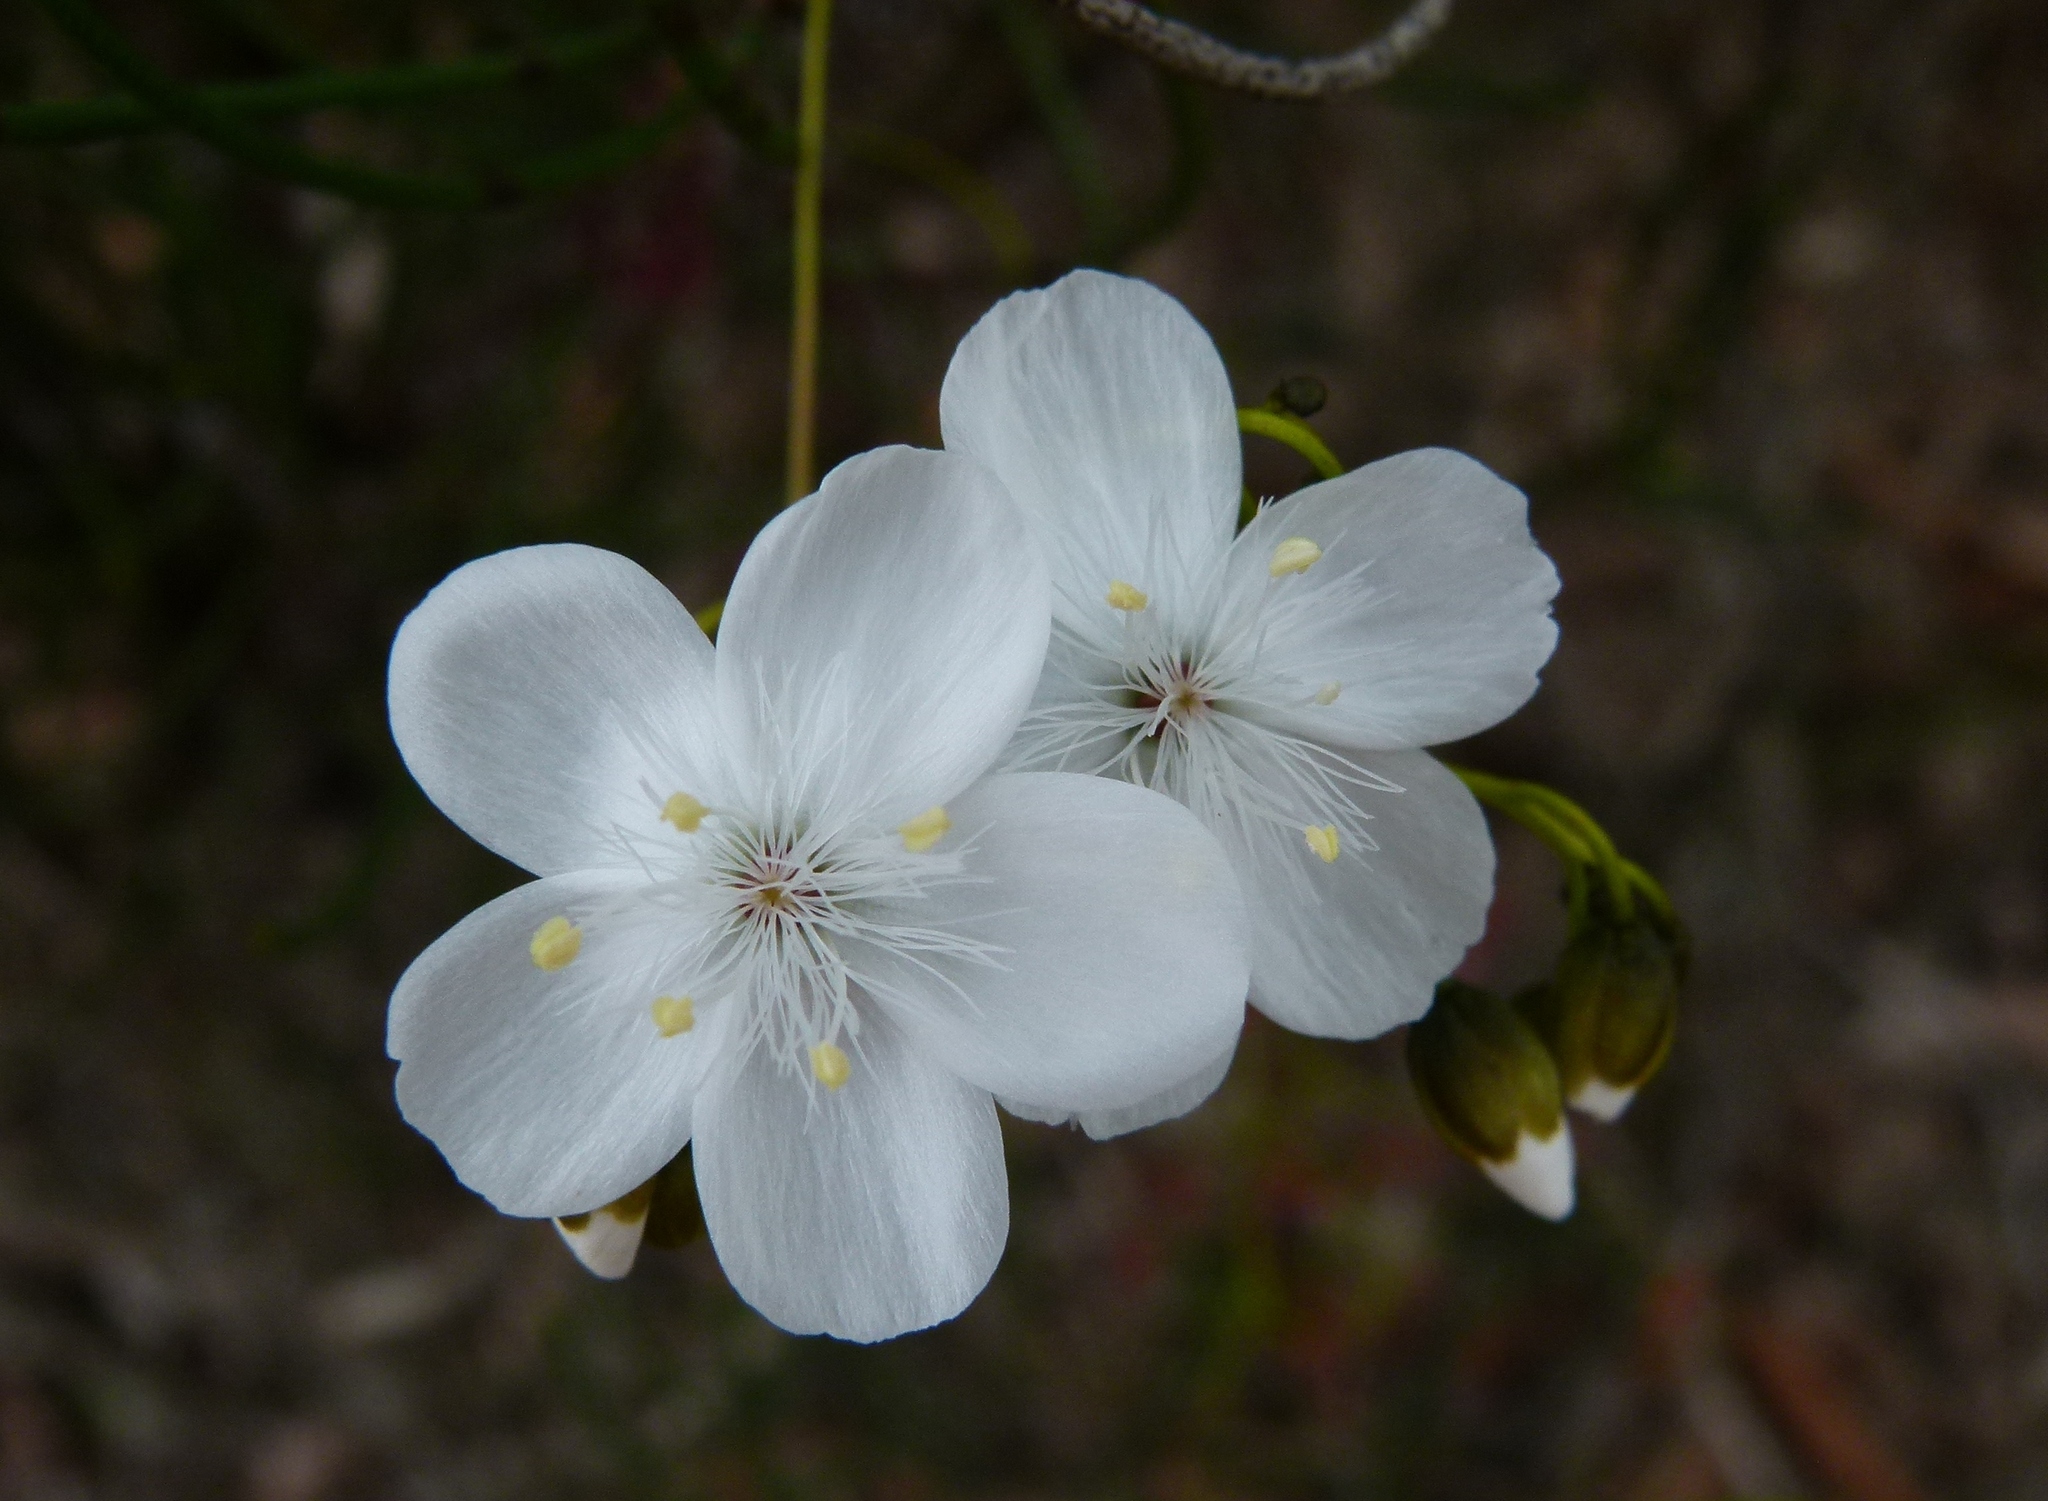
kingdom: Plantae
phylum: Tracheophyta
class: Magnoliopsida
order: Caryophyllales
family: Droseraceae
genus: Drosera
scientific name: Drosera pallida
